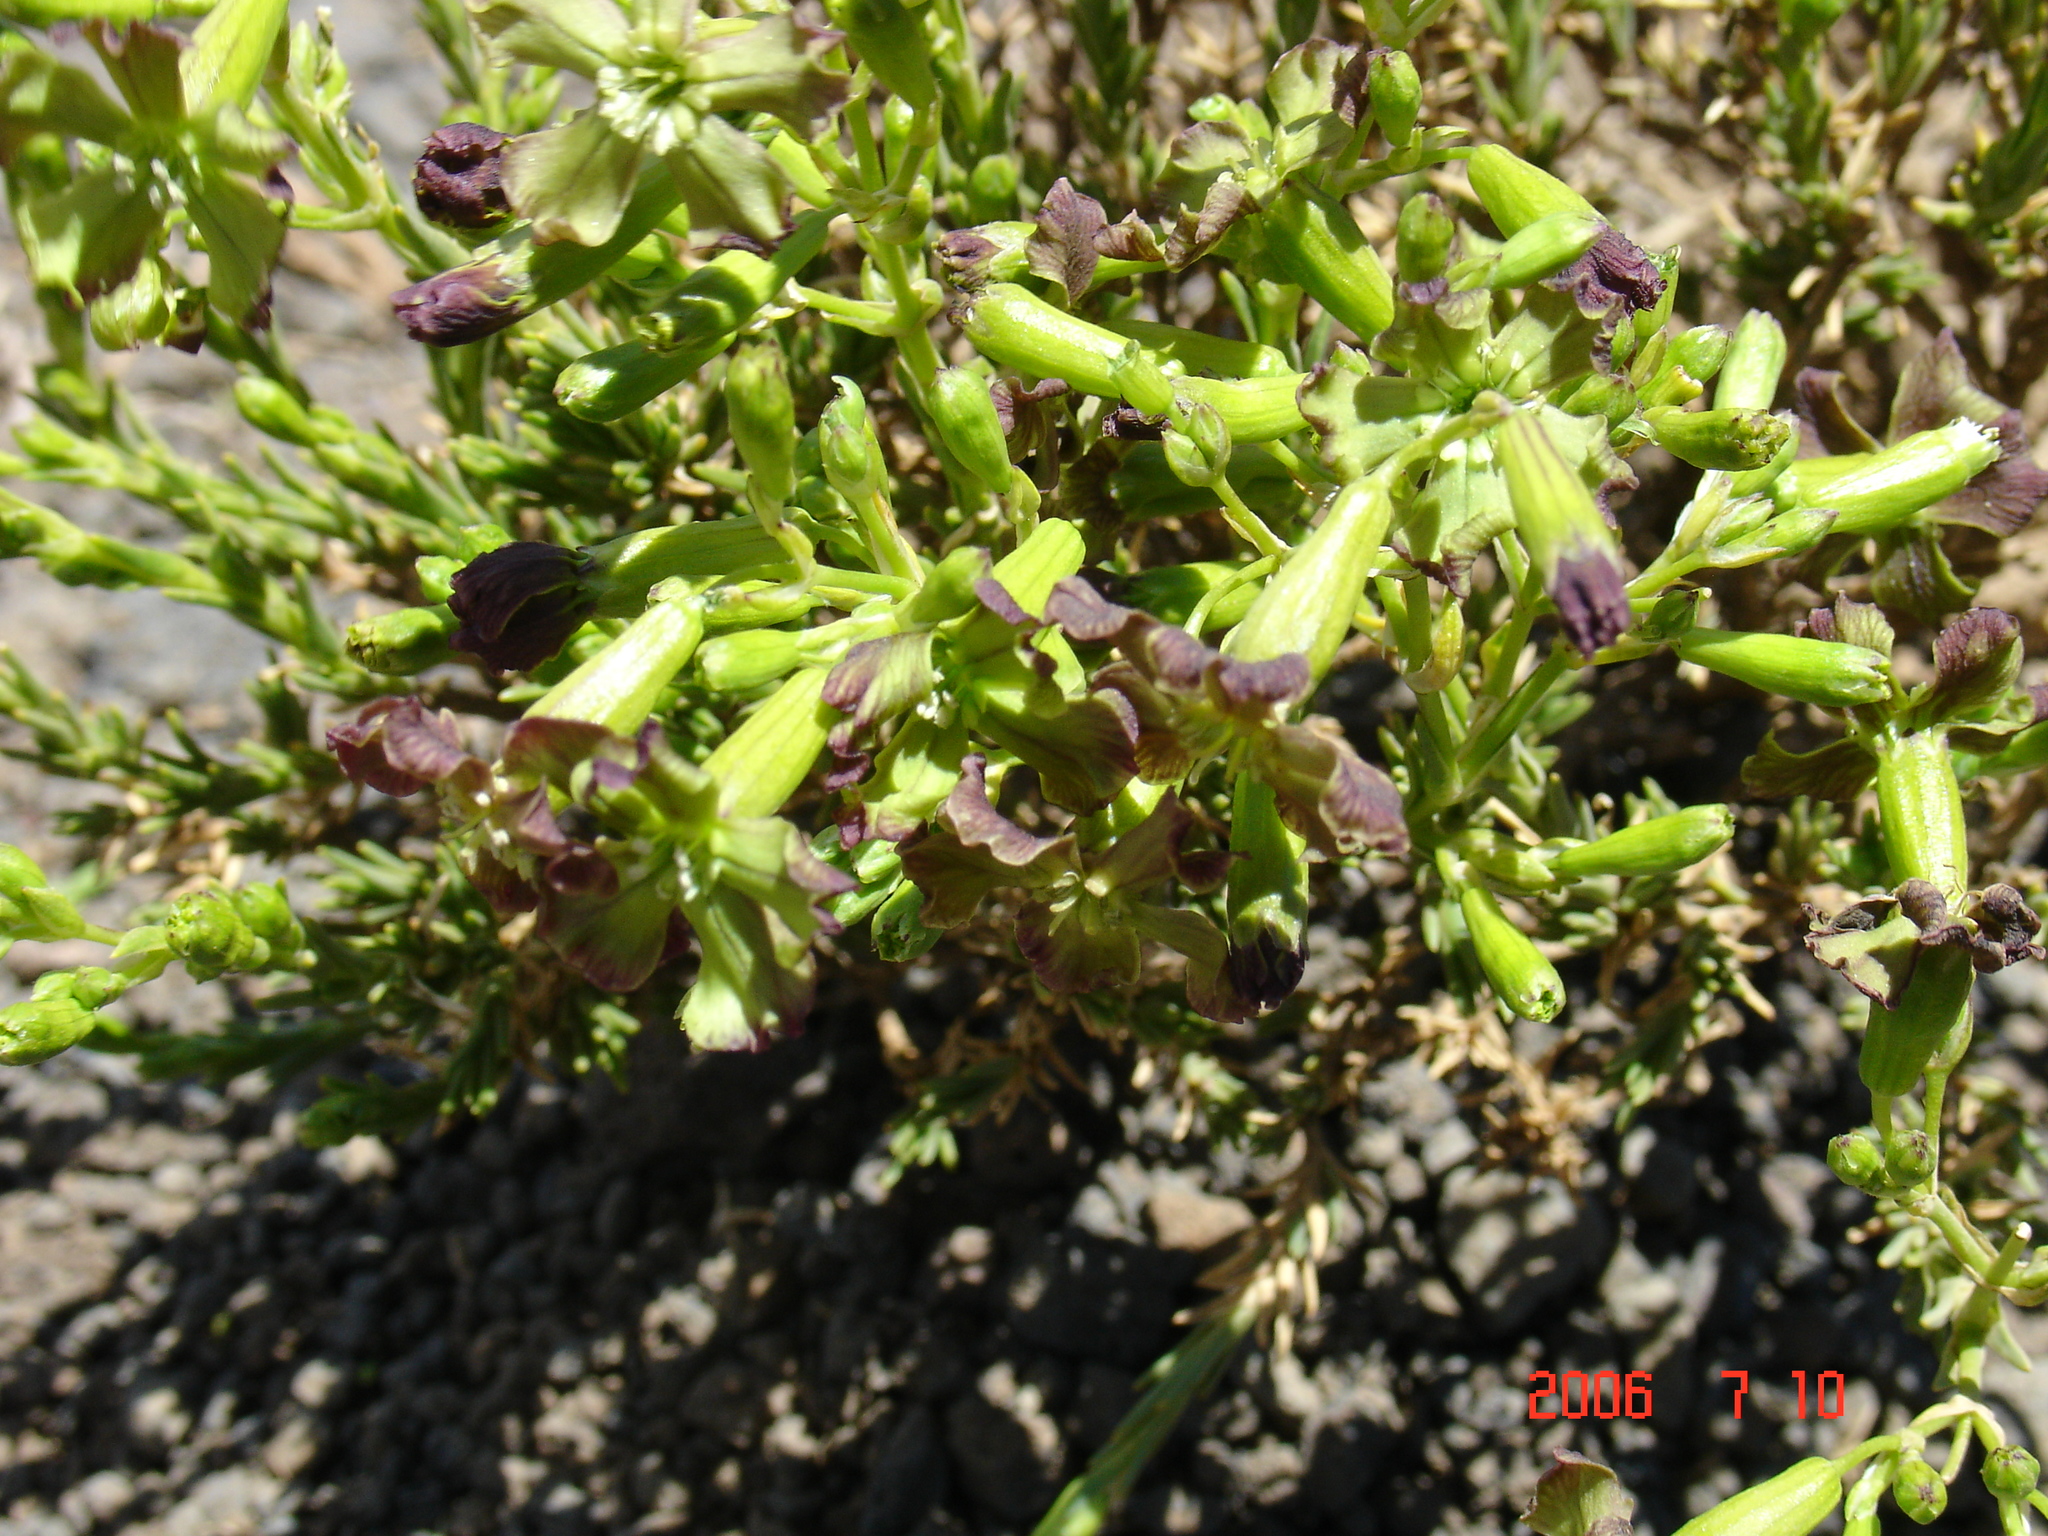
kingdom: Plantae
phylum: Tracheophyta
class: Magnoliopsida
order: Caryophyllales
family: Caryophyllaceae
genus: Silene
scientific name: Silene struthioloides
